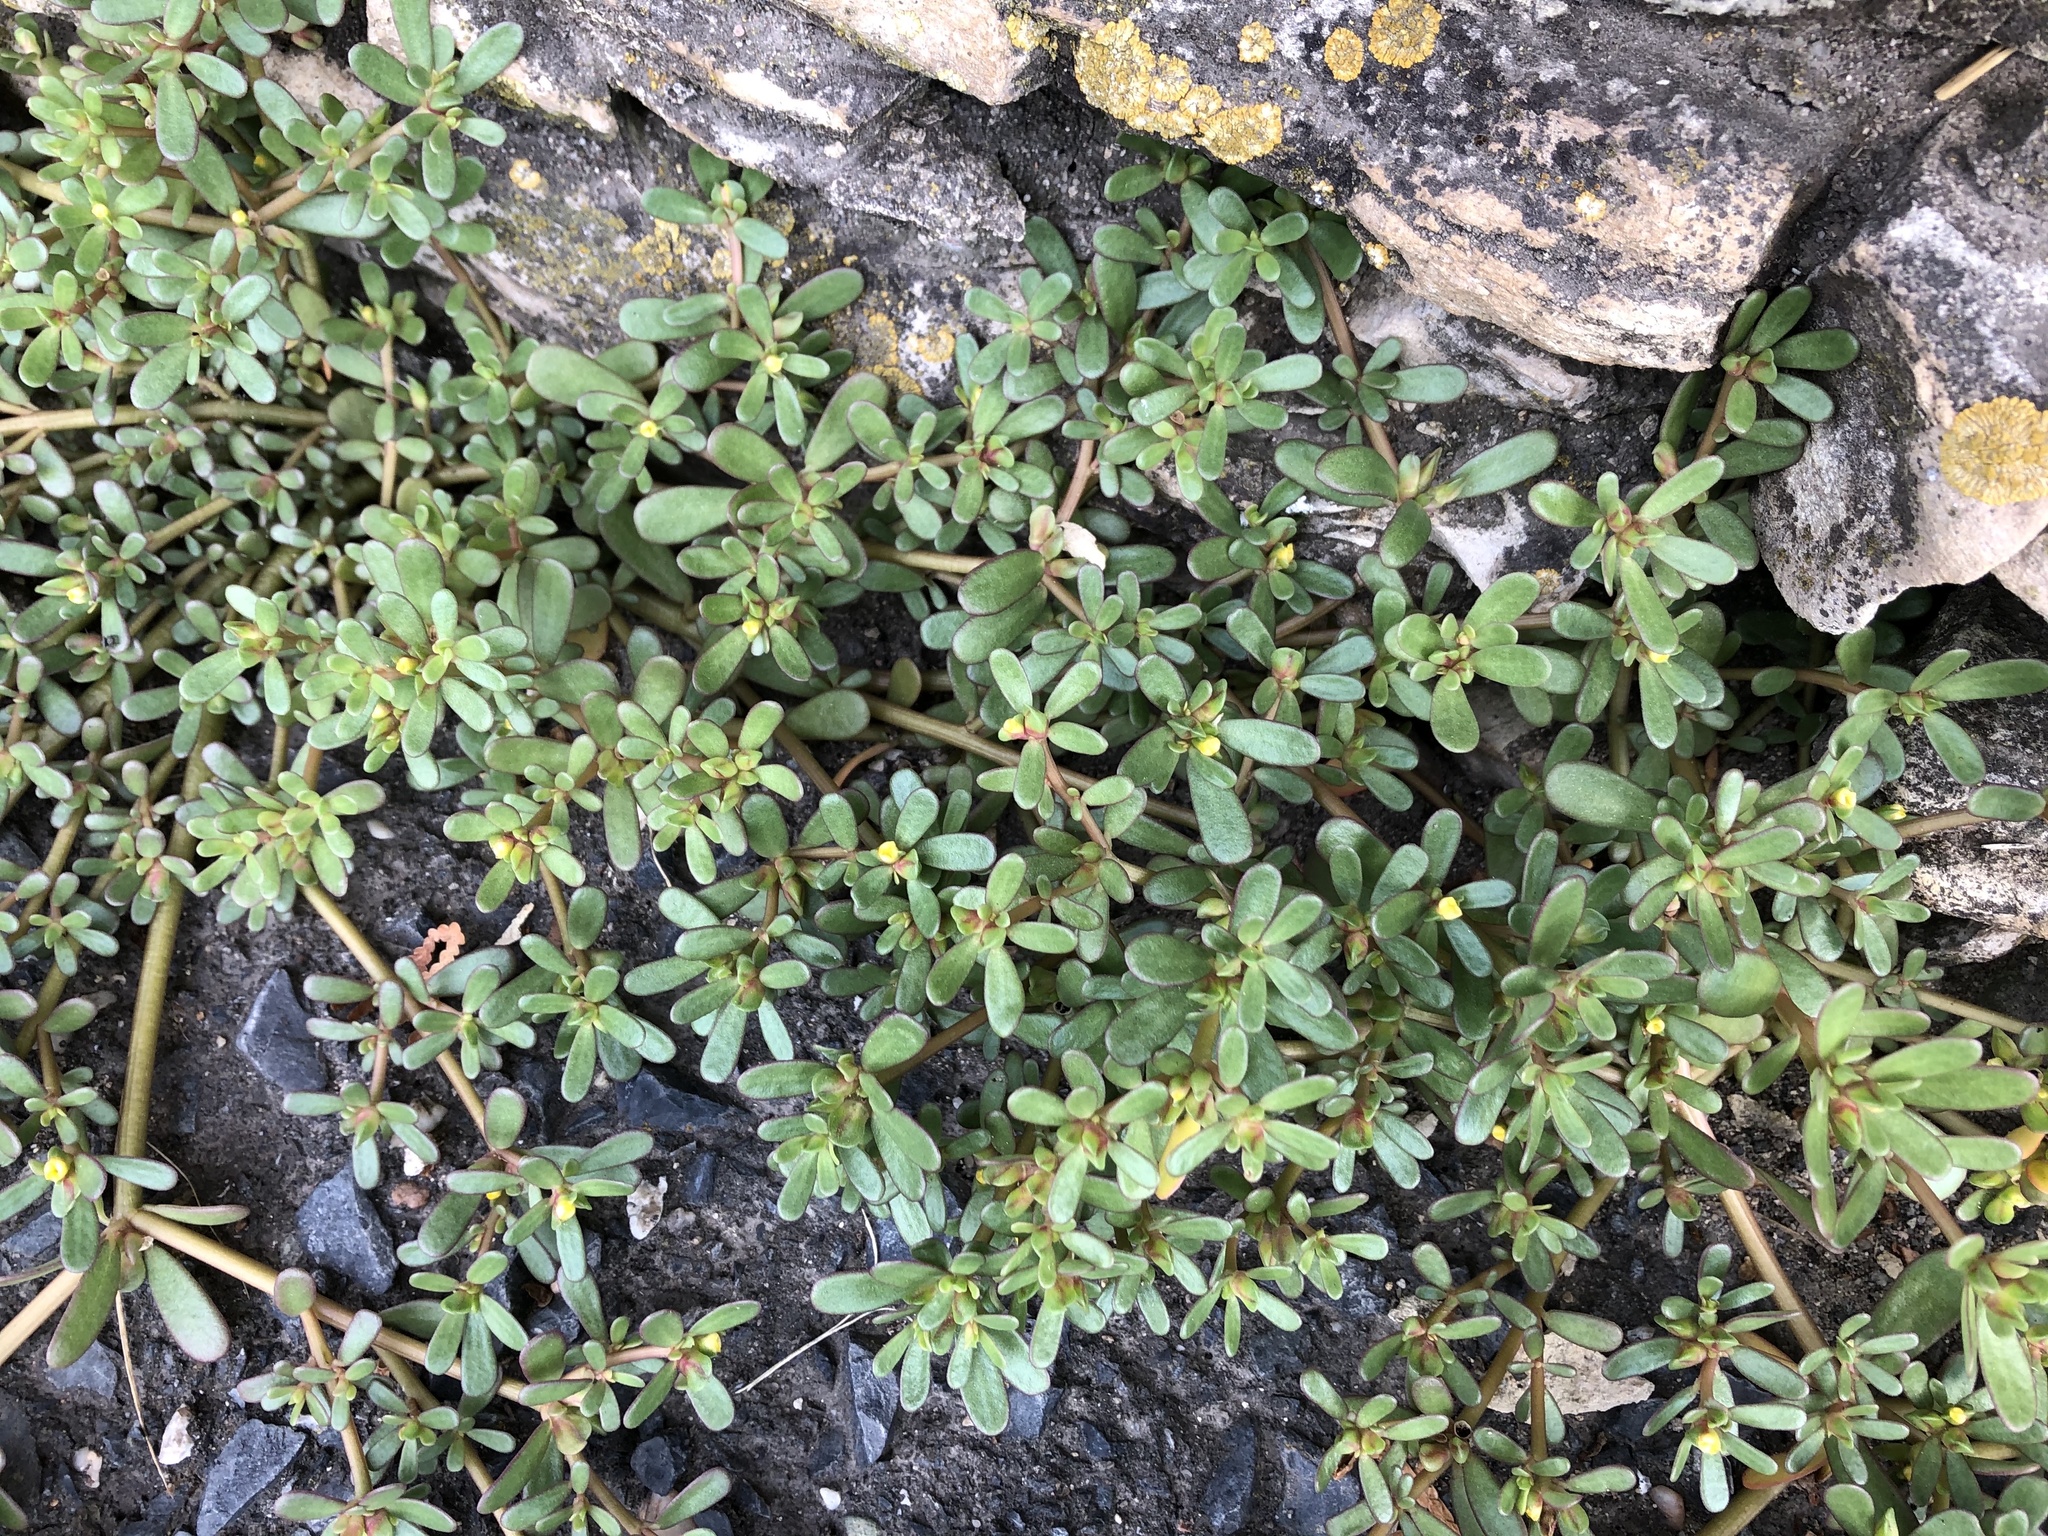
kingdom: Plantae
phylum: Tracheophyta
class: Magnoliopsida
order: Caryophyllales
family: Portulacaceae
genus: Portulaca
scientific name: Portulaca oleracea
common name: Common purslane
